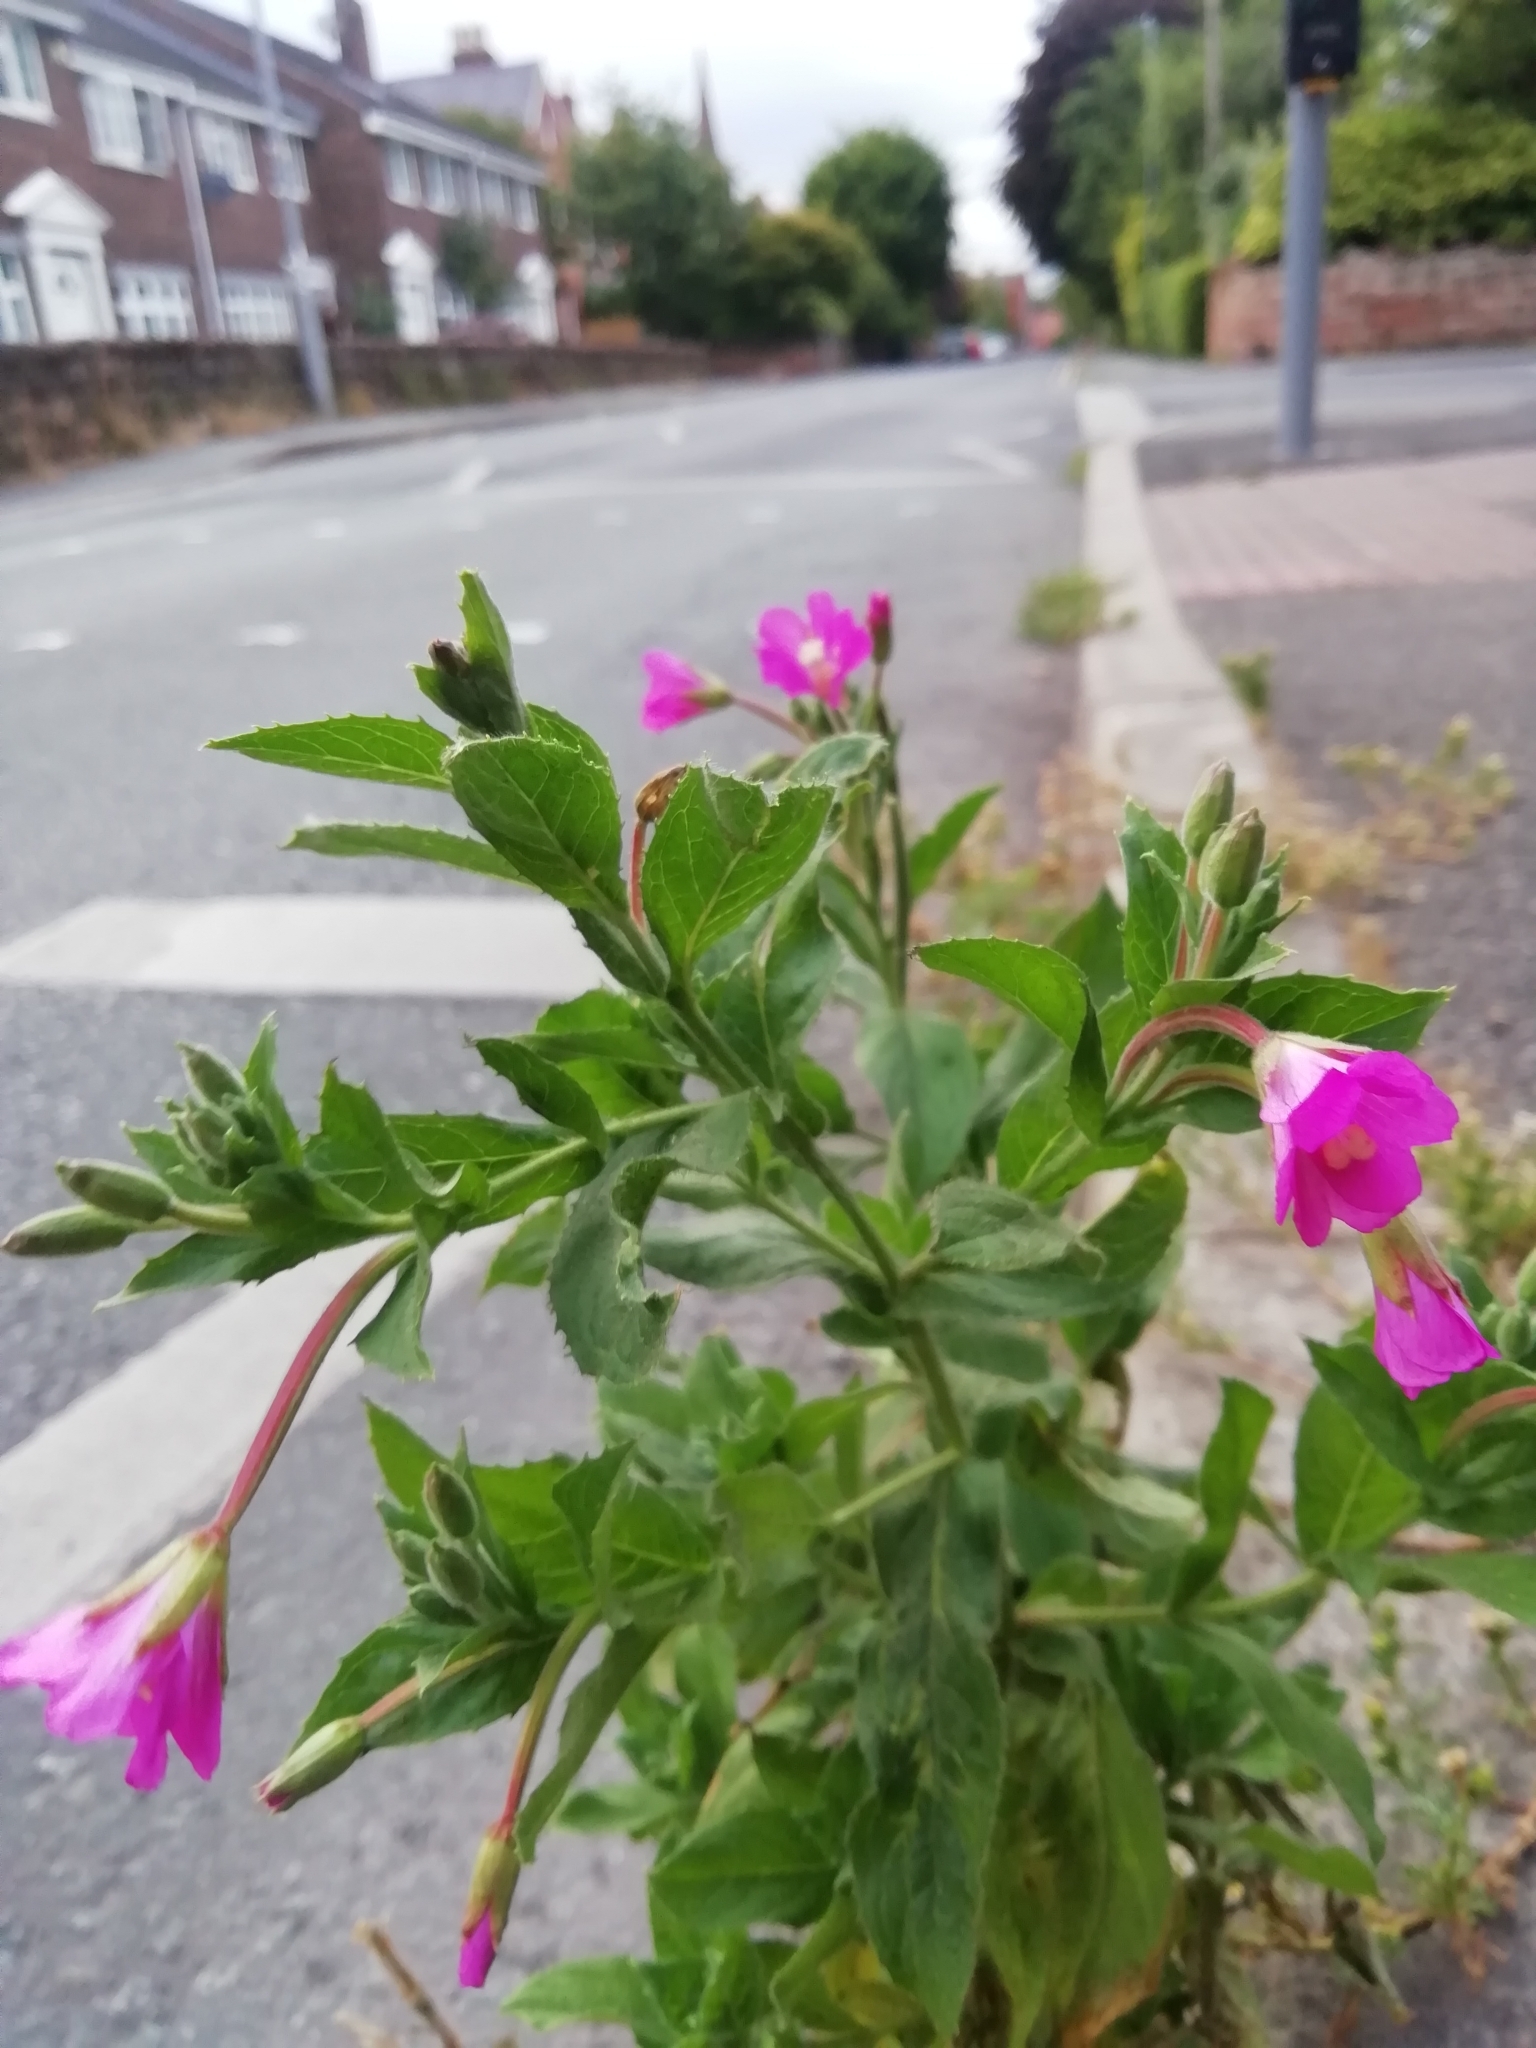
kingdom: Plantae
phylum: Tracheophyta
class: Magnoliopsida
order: Myrtales
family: Onagraceae
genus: Epilobium
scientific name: Epilobium hirsutum
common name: Great willowherb
